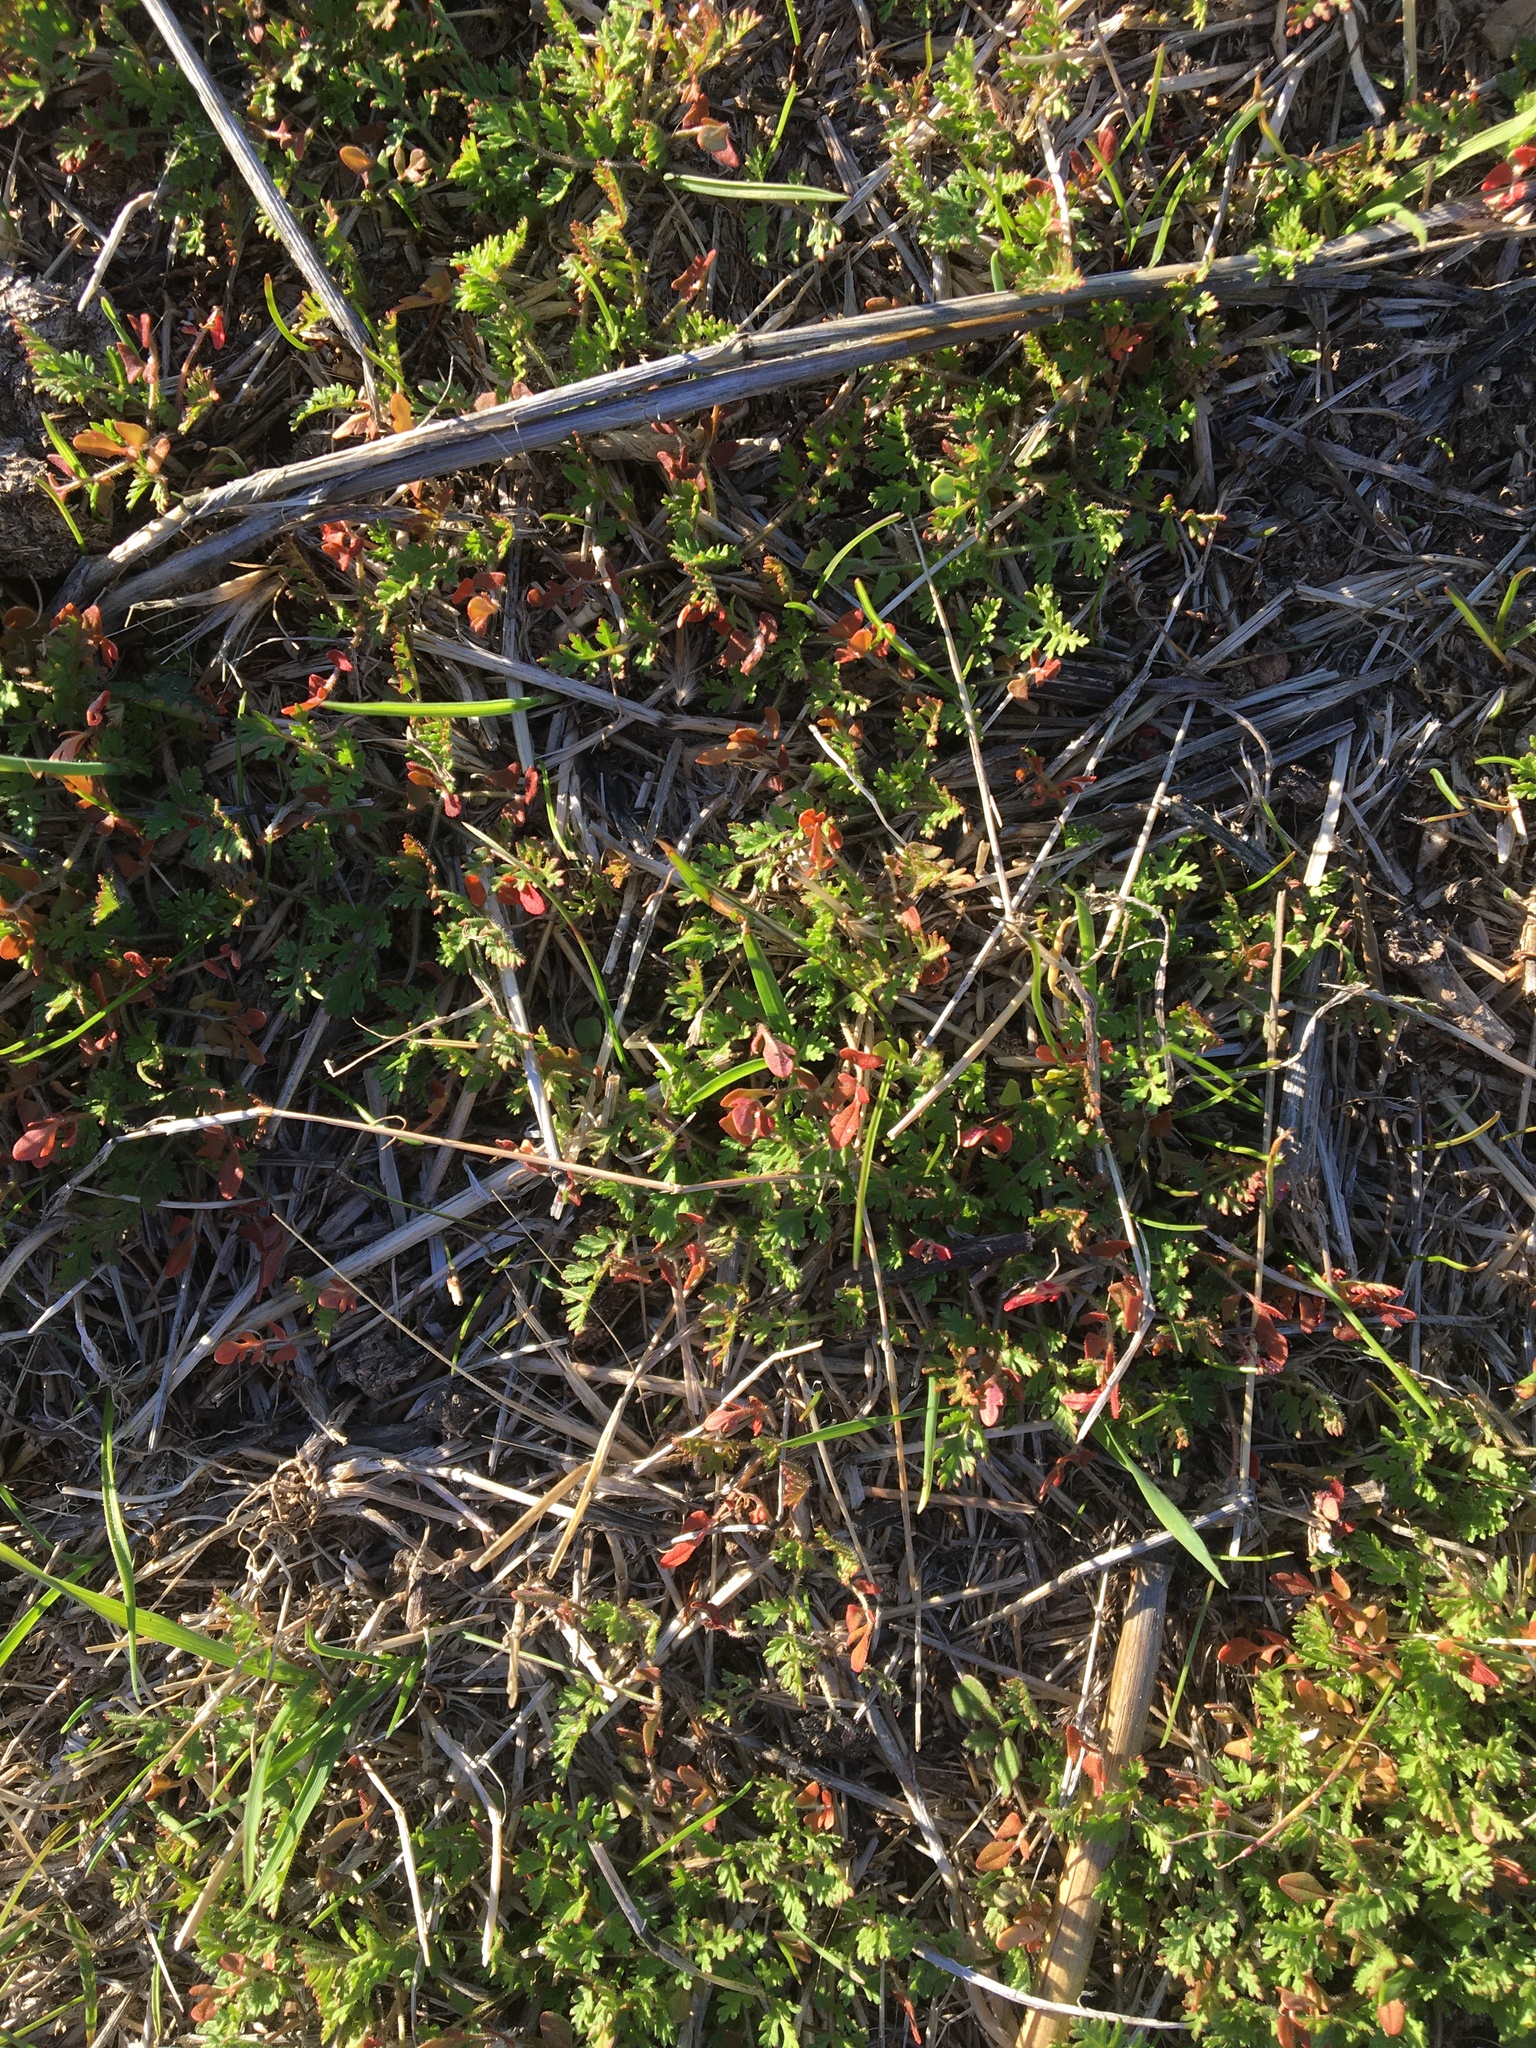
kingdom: Plantae
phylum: Tracheophyta
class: Magnoliopsida
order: Geraniales
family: Geraniaceae
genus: Erodium
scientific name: Erodium cicutarium
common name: Common stork's-bill
